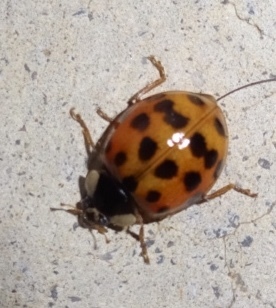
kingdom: Animalia
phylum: Arthropoda
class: Insecta
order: Coleoptera
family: Coccinellidae
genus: Harmonia
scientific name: Harmonia axyridis
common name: Harlequin ladybird
